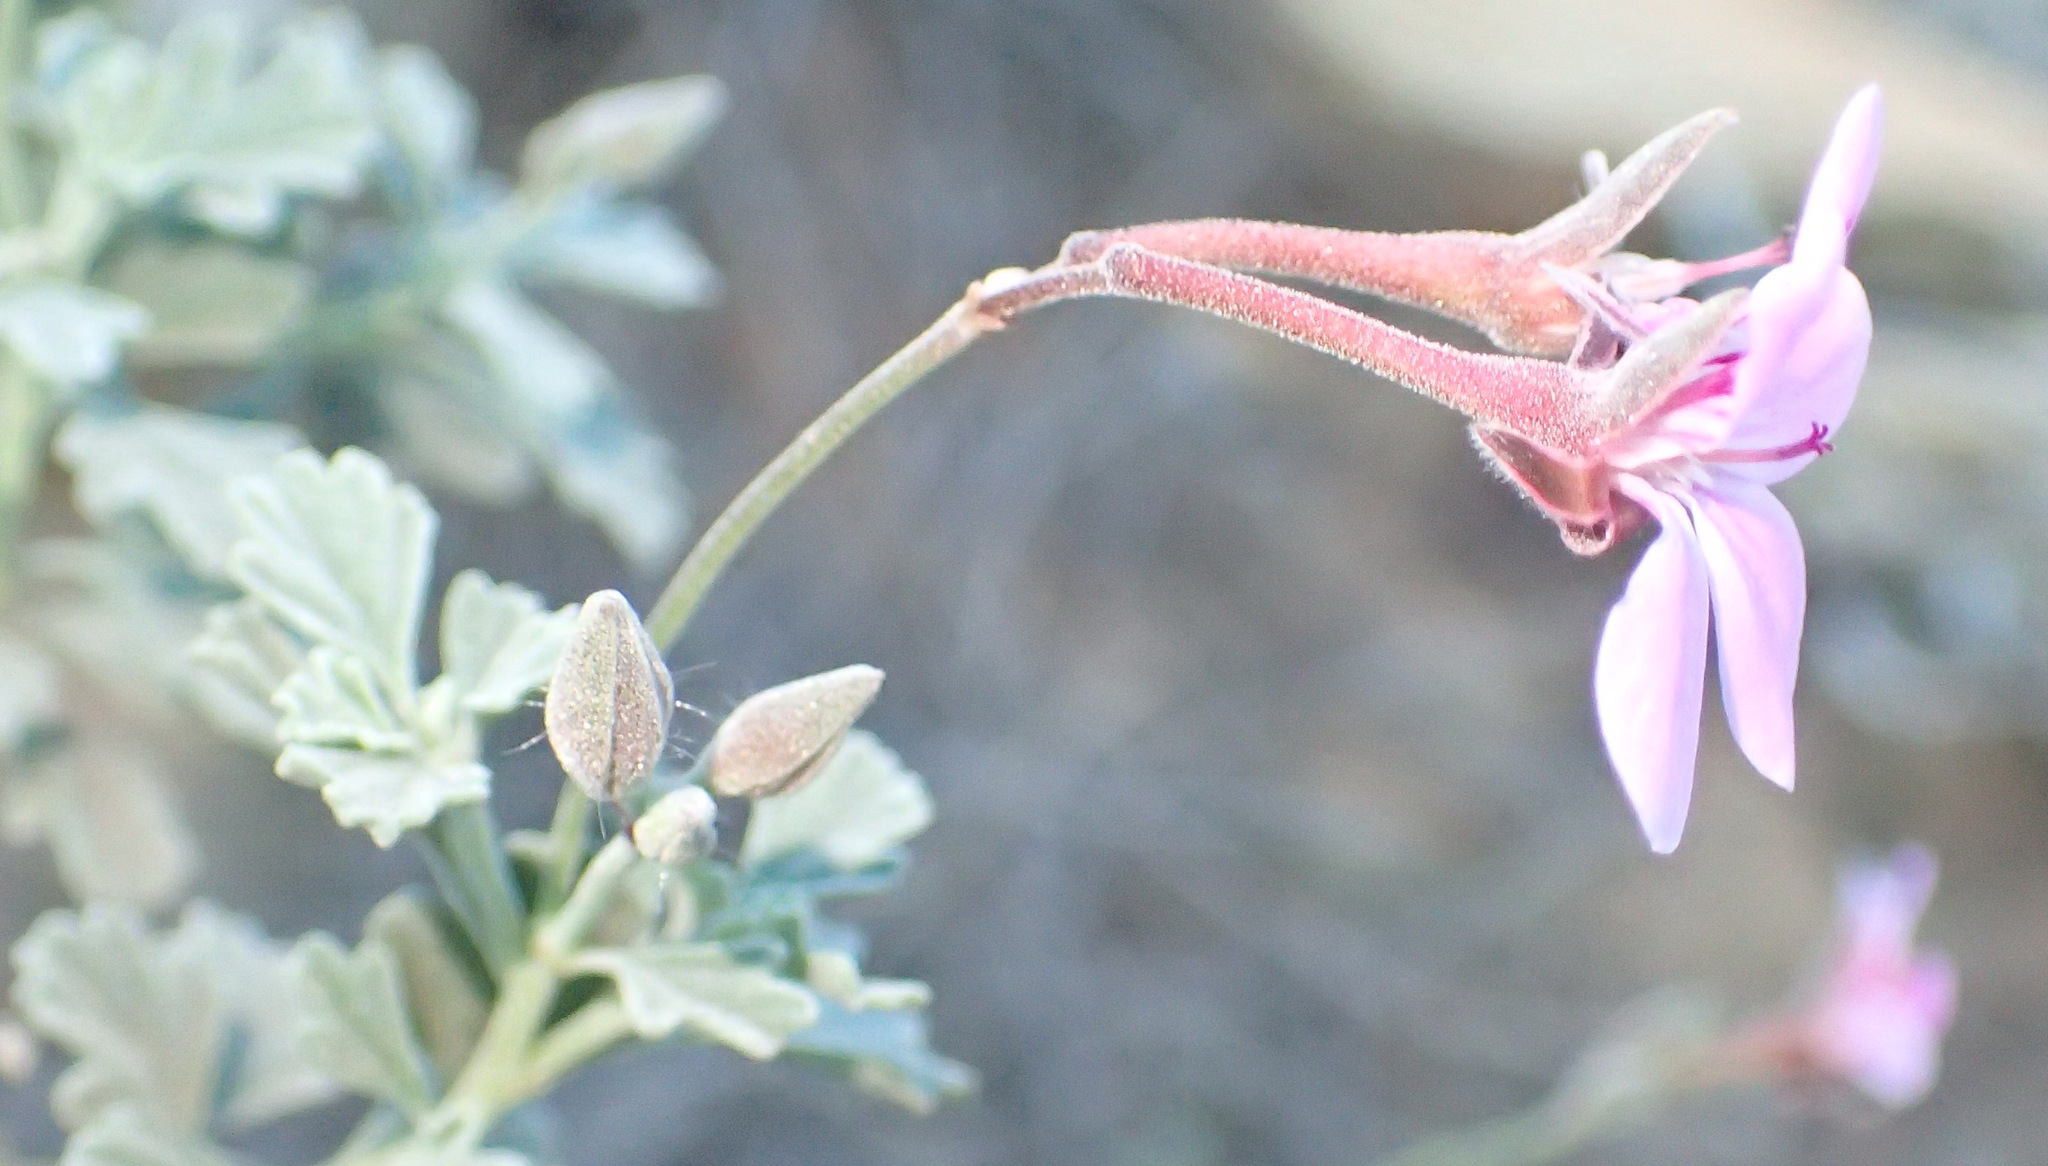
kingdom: Plantae
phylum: Tracheophyta
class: Magnoliopsida
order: Geraniales
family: Geraniaceae
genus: Pelargonium
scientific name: Pelargonium exstipulatum
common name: Soft-leaf trifid pelargonium
